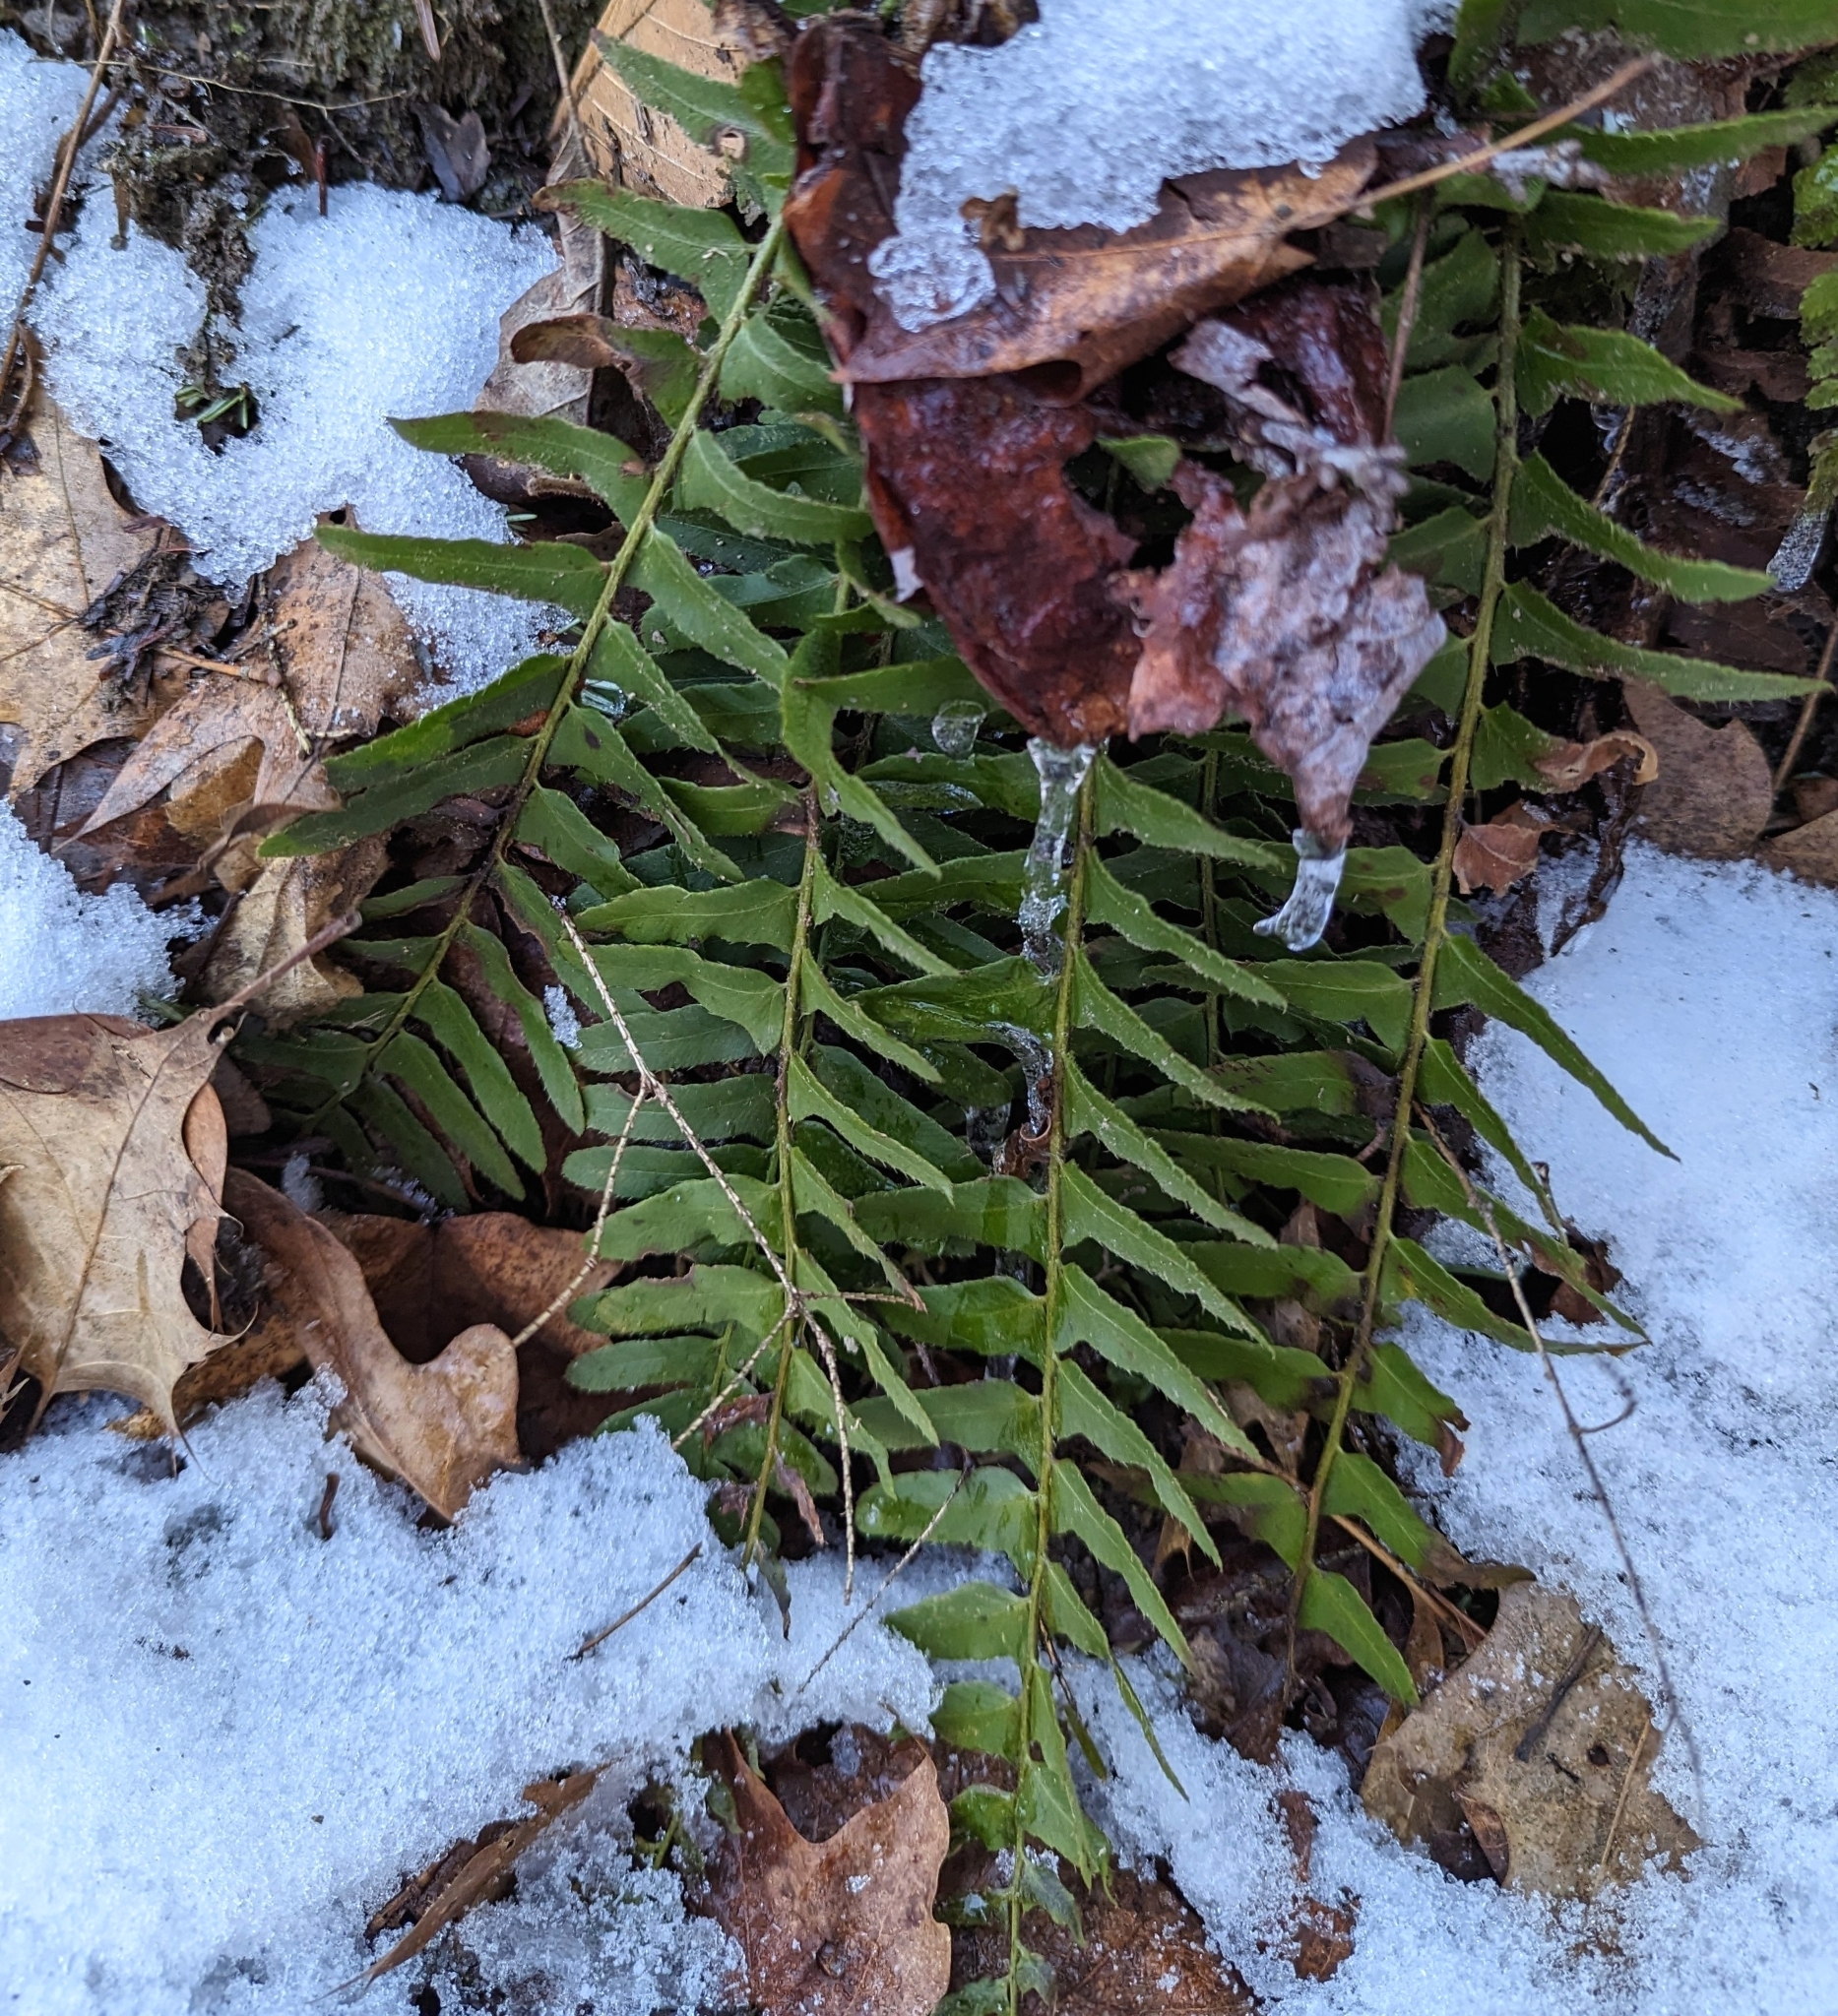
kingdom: Plantae
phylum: Tracheophyta
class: Polypodiopsida
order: Polypodiales
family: Dryopteridaceae
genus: Polystichum
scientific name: Polystichum acrostichoides
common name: Christmas fern
